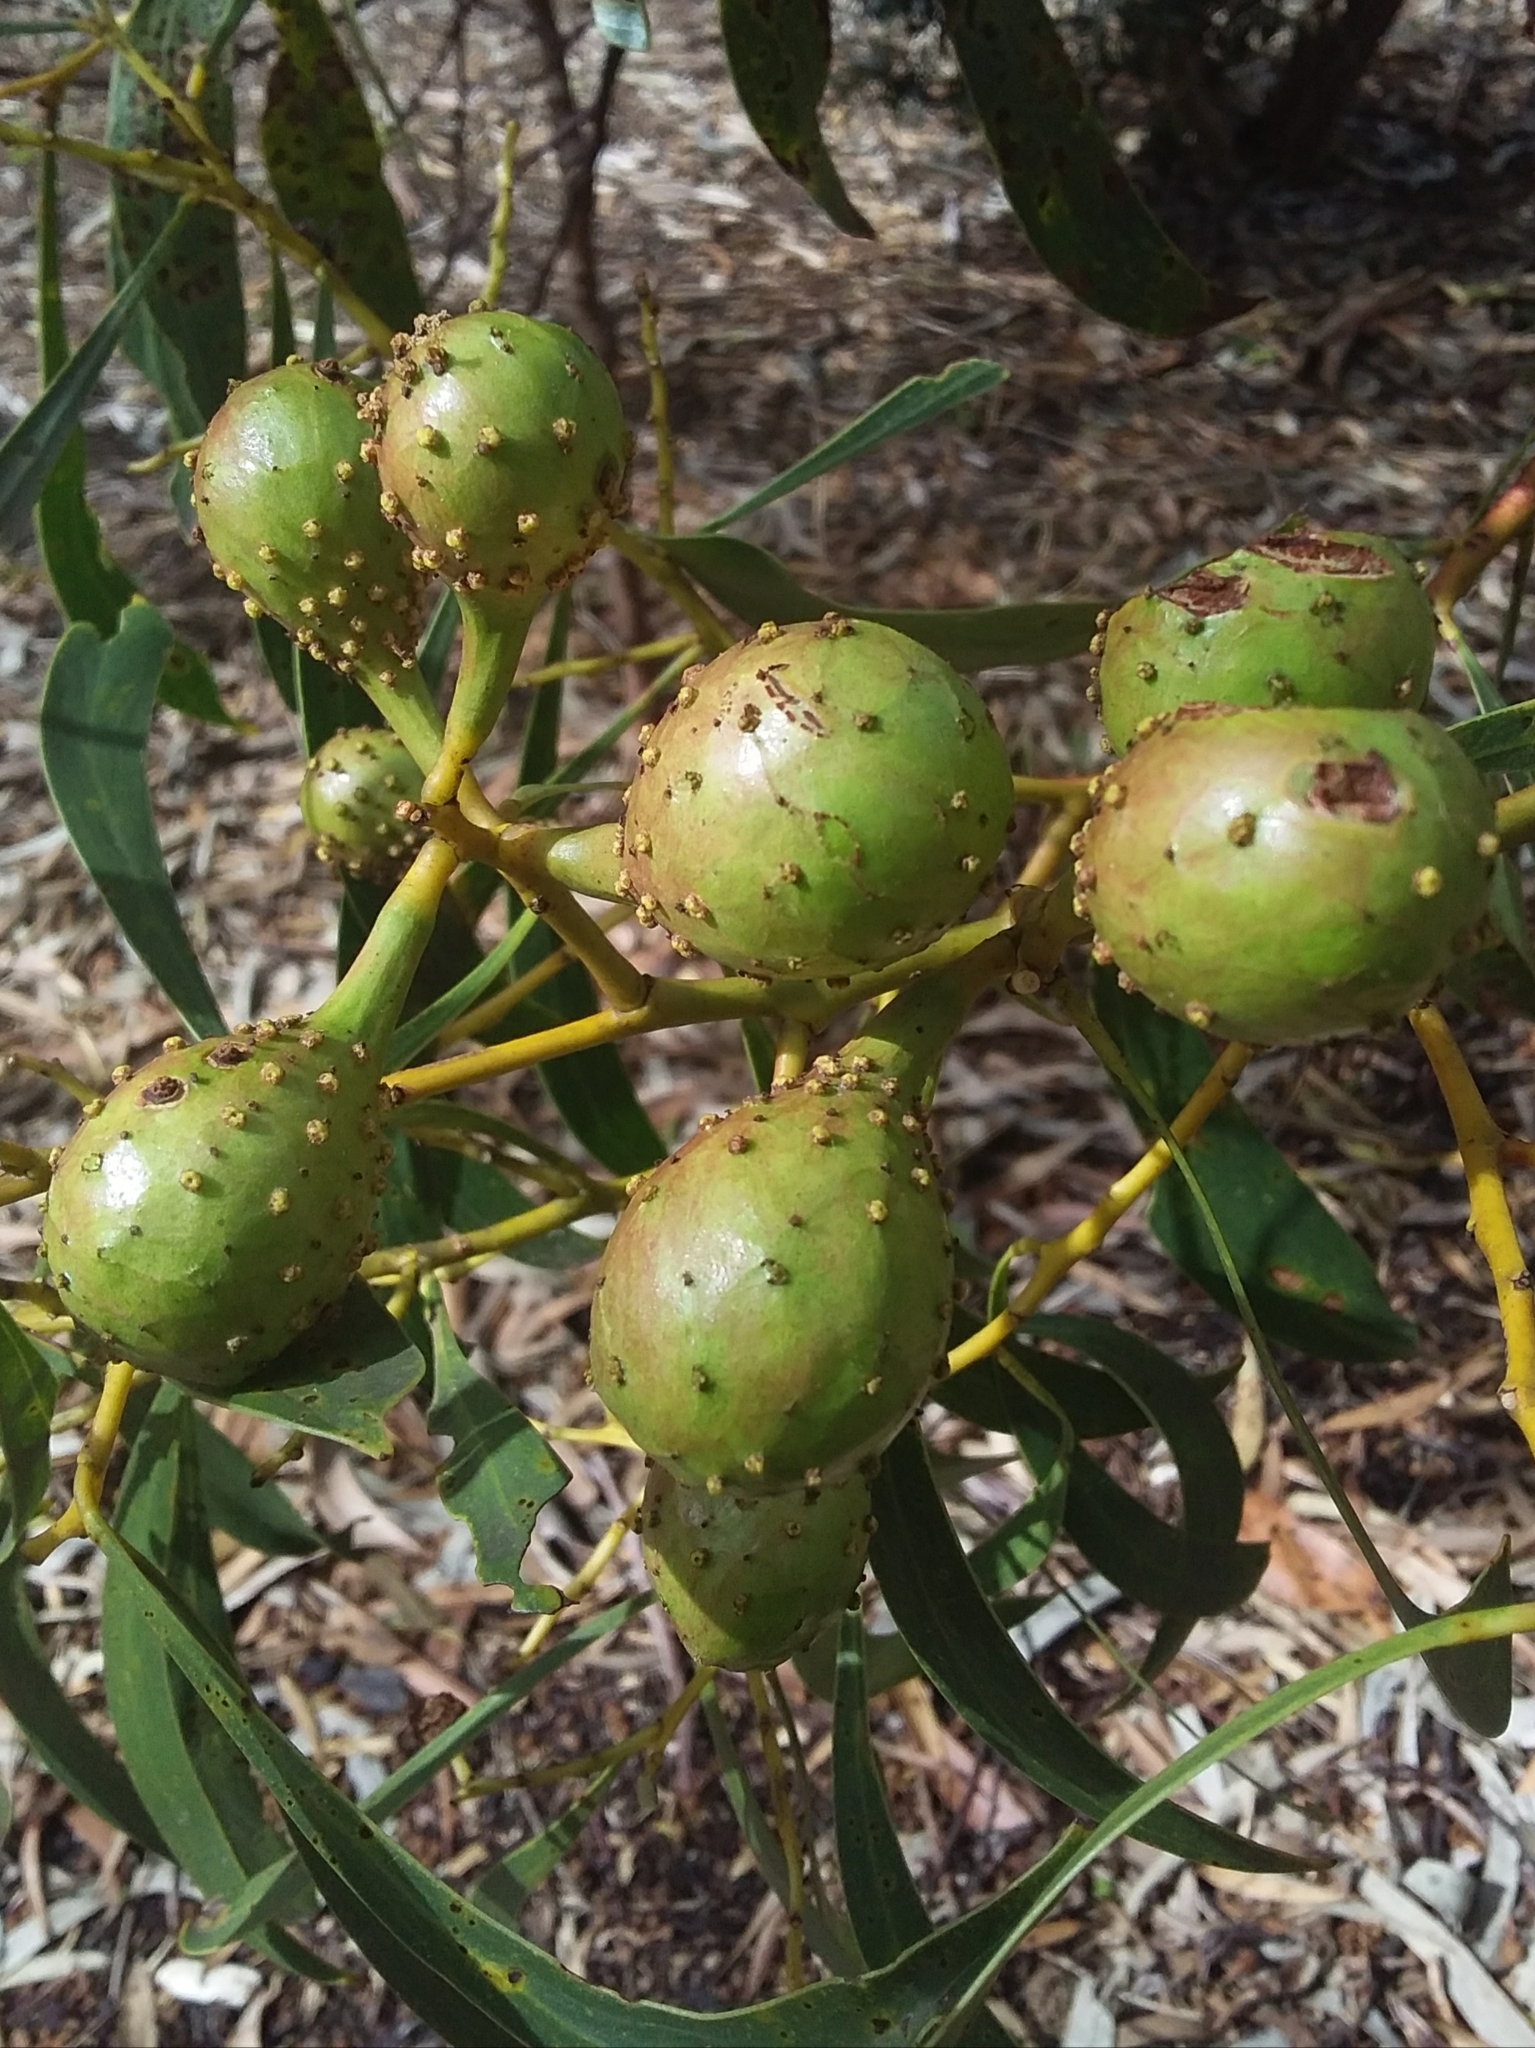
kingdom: Animalia
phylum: Arthropoda
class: Insecta
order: Hymenoptera
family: Pteromalidae
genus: Trichilogaster
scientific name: Trichilogaster signiventris
